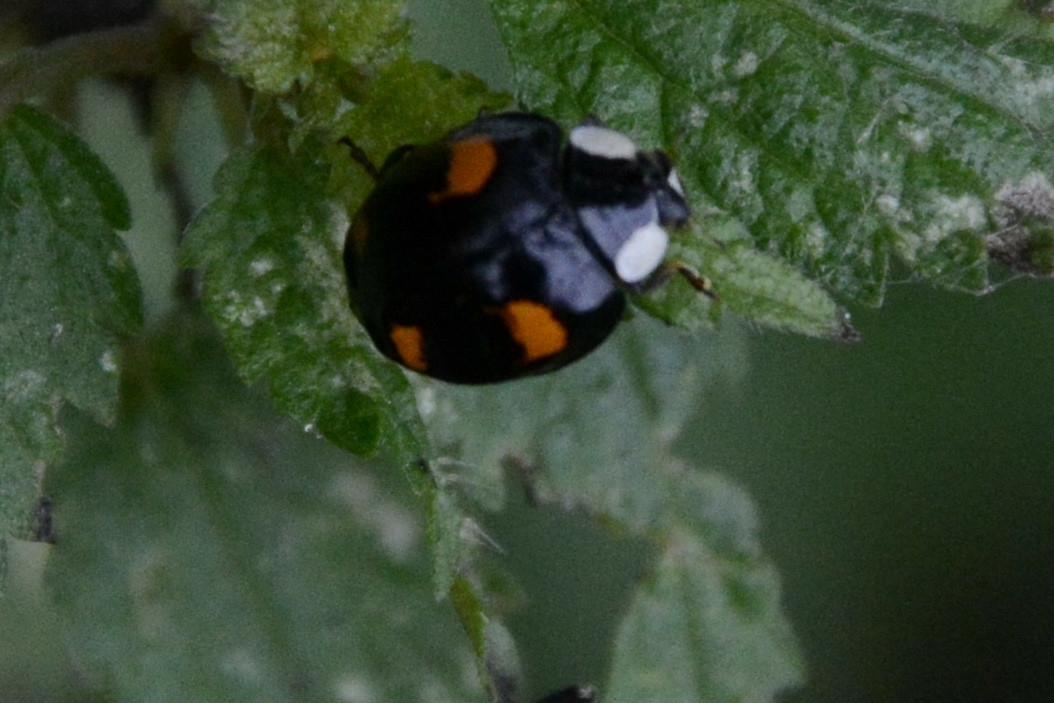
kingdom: Animalia
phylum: Arthropoda
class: Insecta
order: Coleoptera
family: Coccinellidae
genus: Harmonia
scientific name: Harmonia axyridis
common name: Harlequin ladybird
